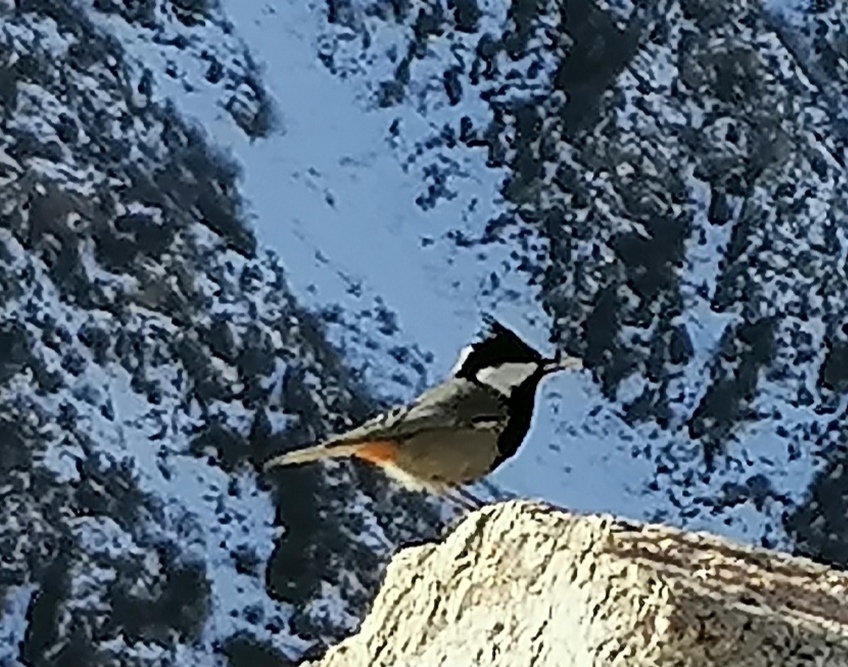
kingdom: Animalia
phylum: Chordata
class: Aves
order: Passeriformes
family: Paridae
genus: Periparus
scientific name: Periparus rufonuchalis
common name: Rufous-naped tit
